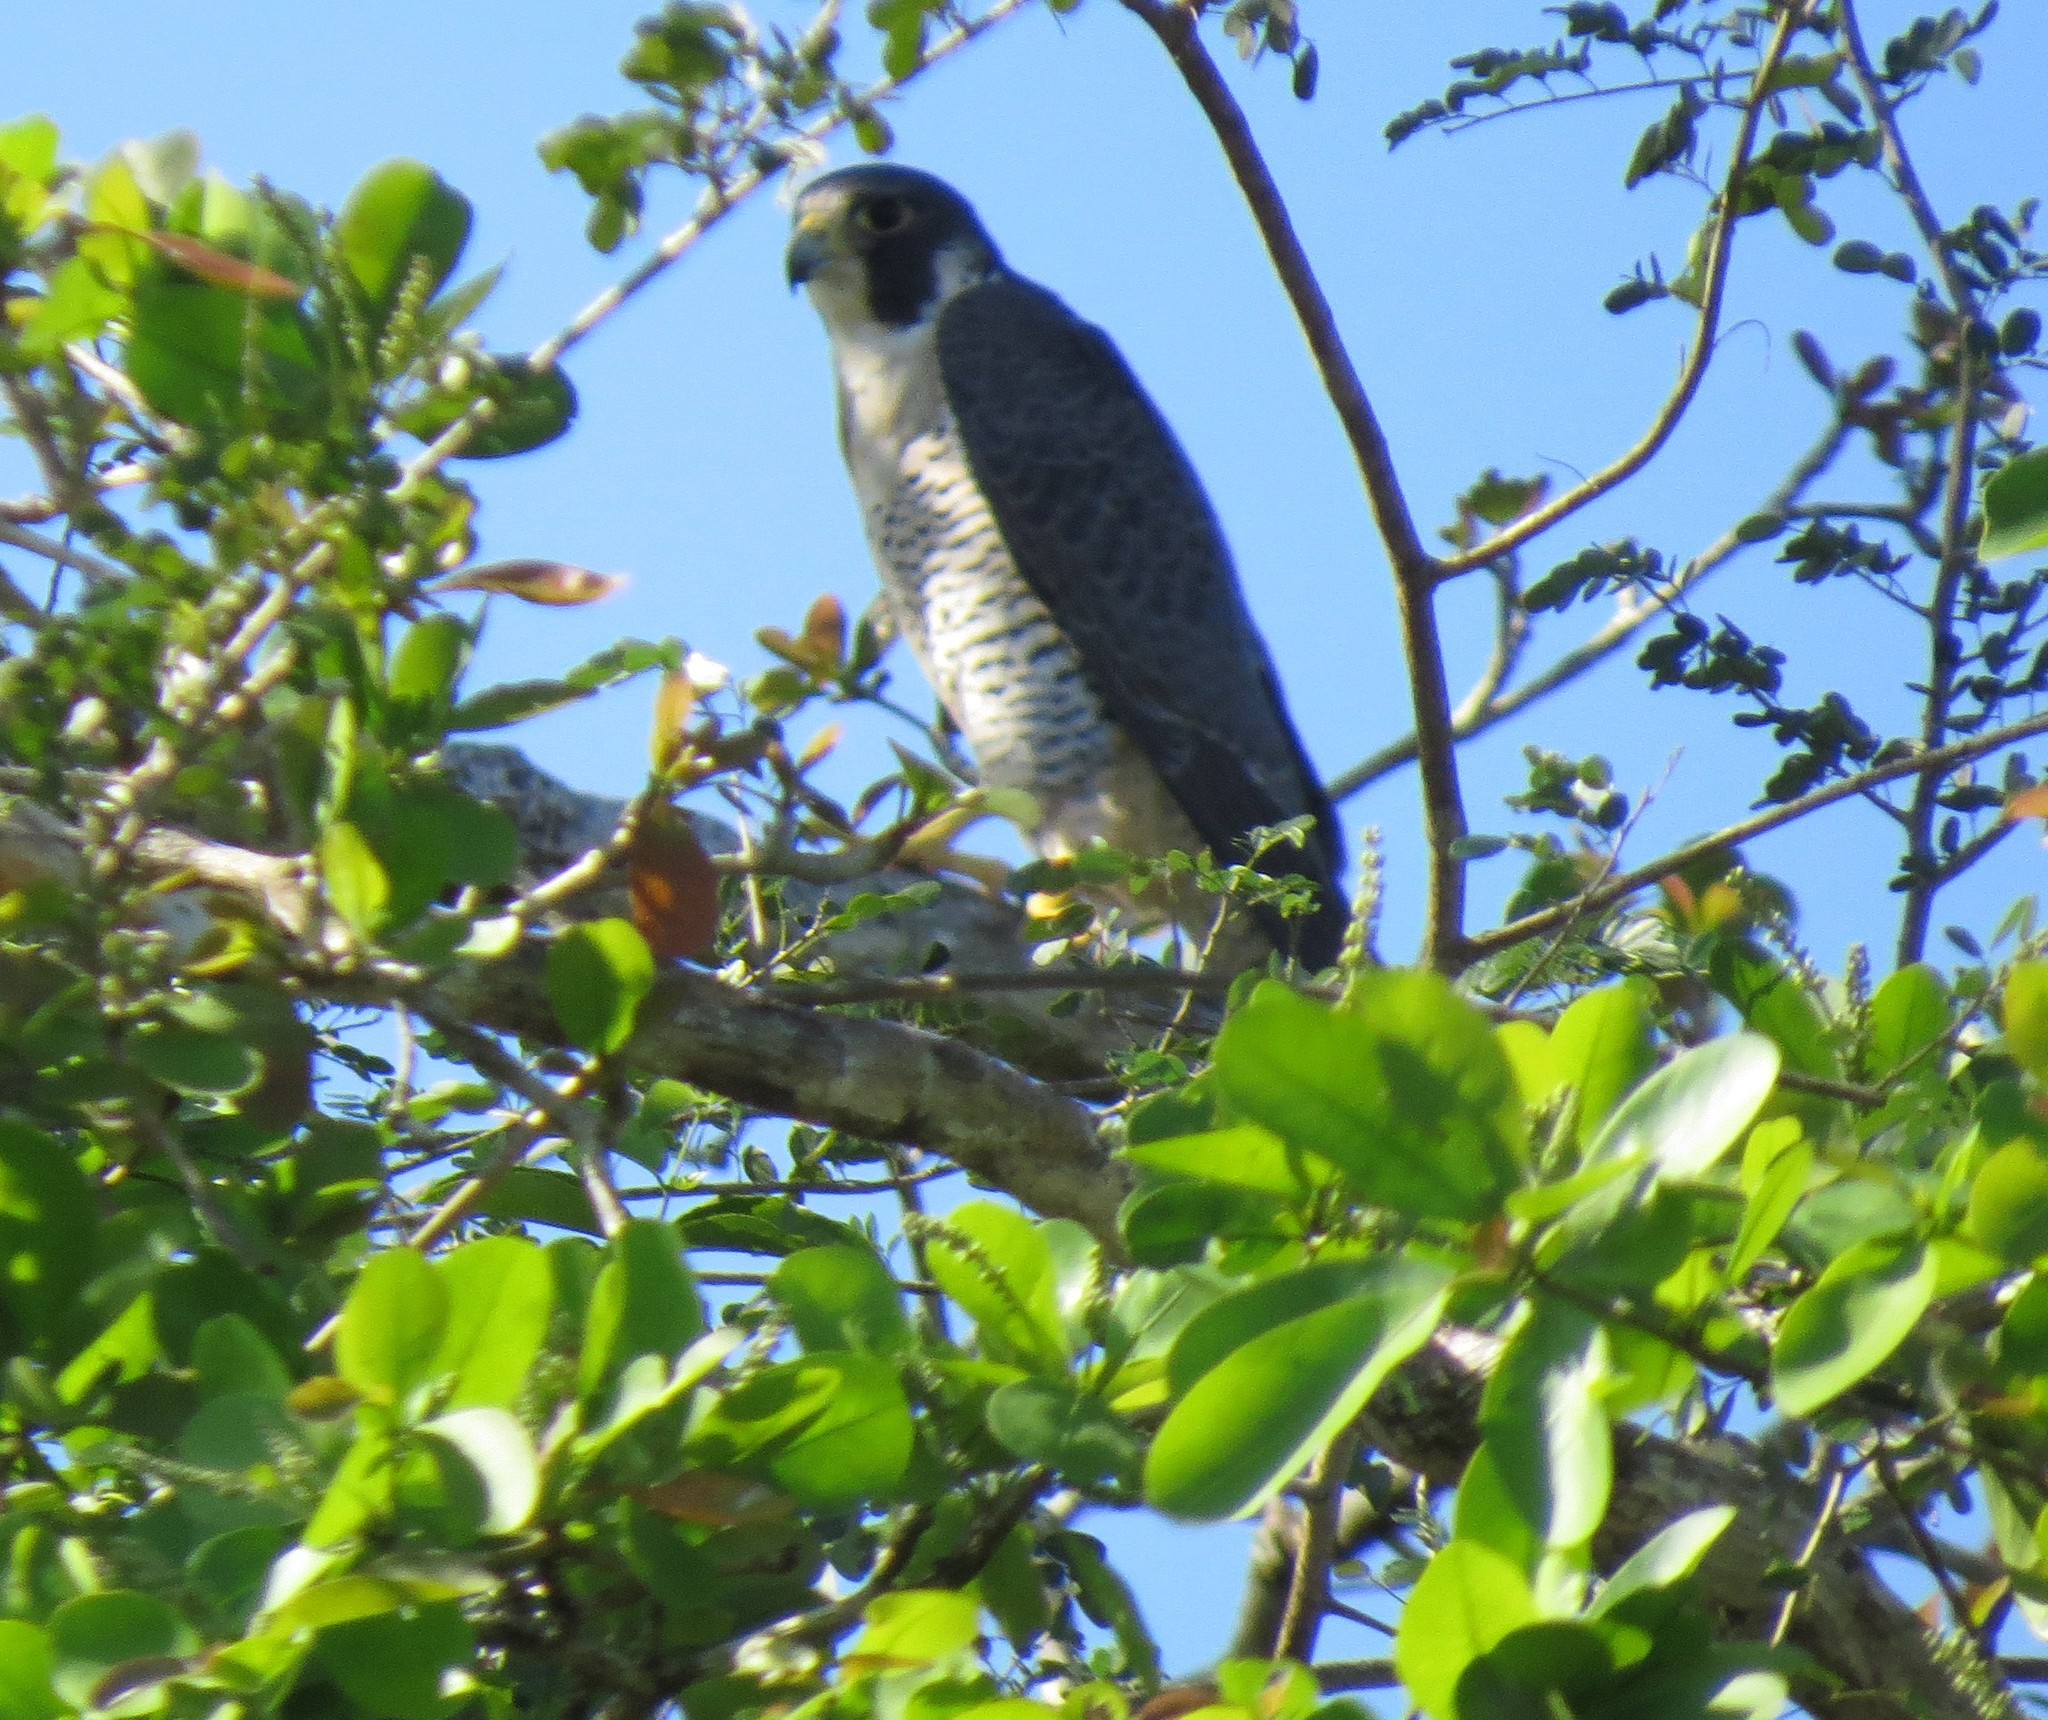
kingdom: Animalia
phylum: Chordata
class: Aves
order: Falconiformes
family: Falconidae
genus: Falco
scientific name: Falco peregrinus
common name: Peregrine falcon
